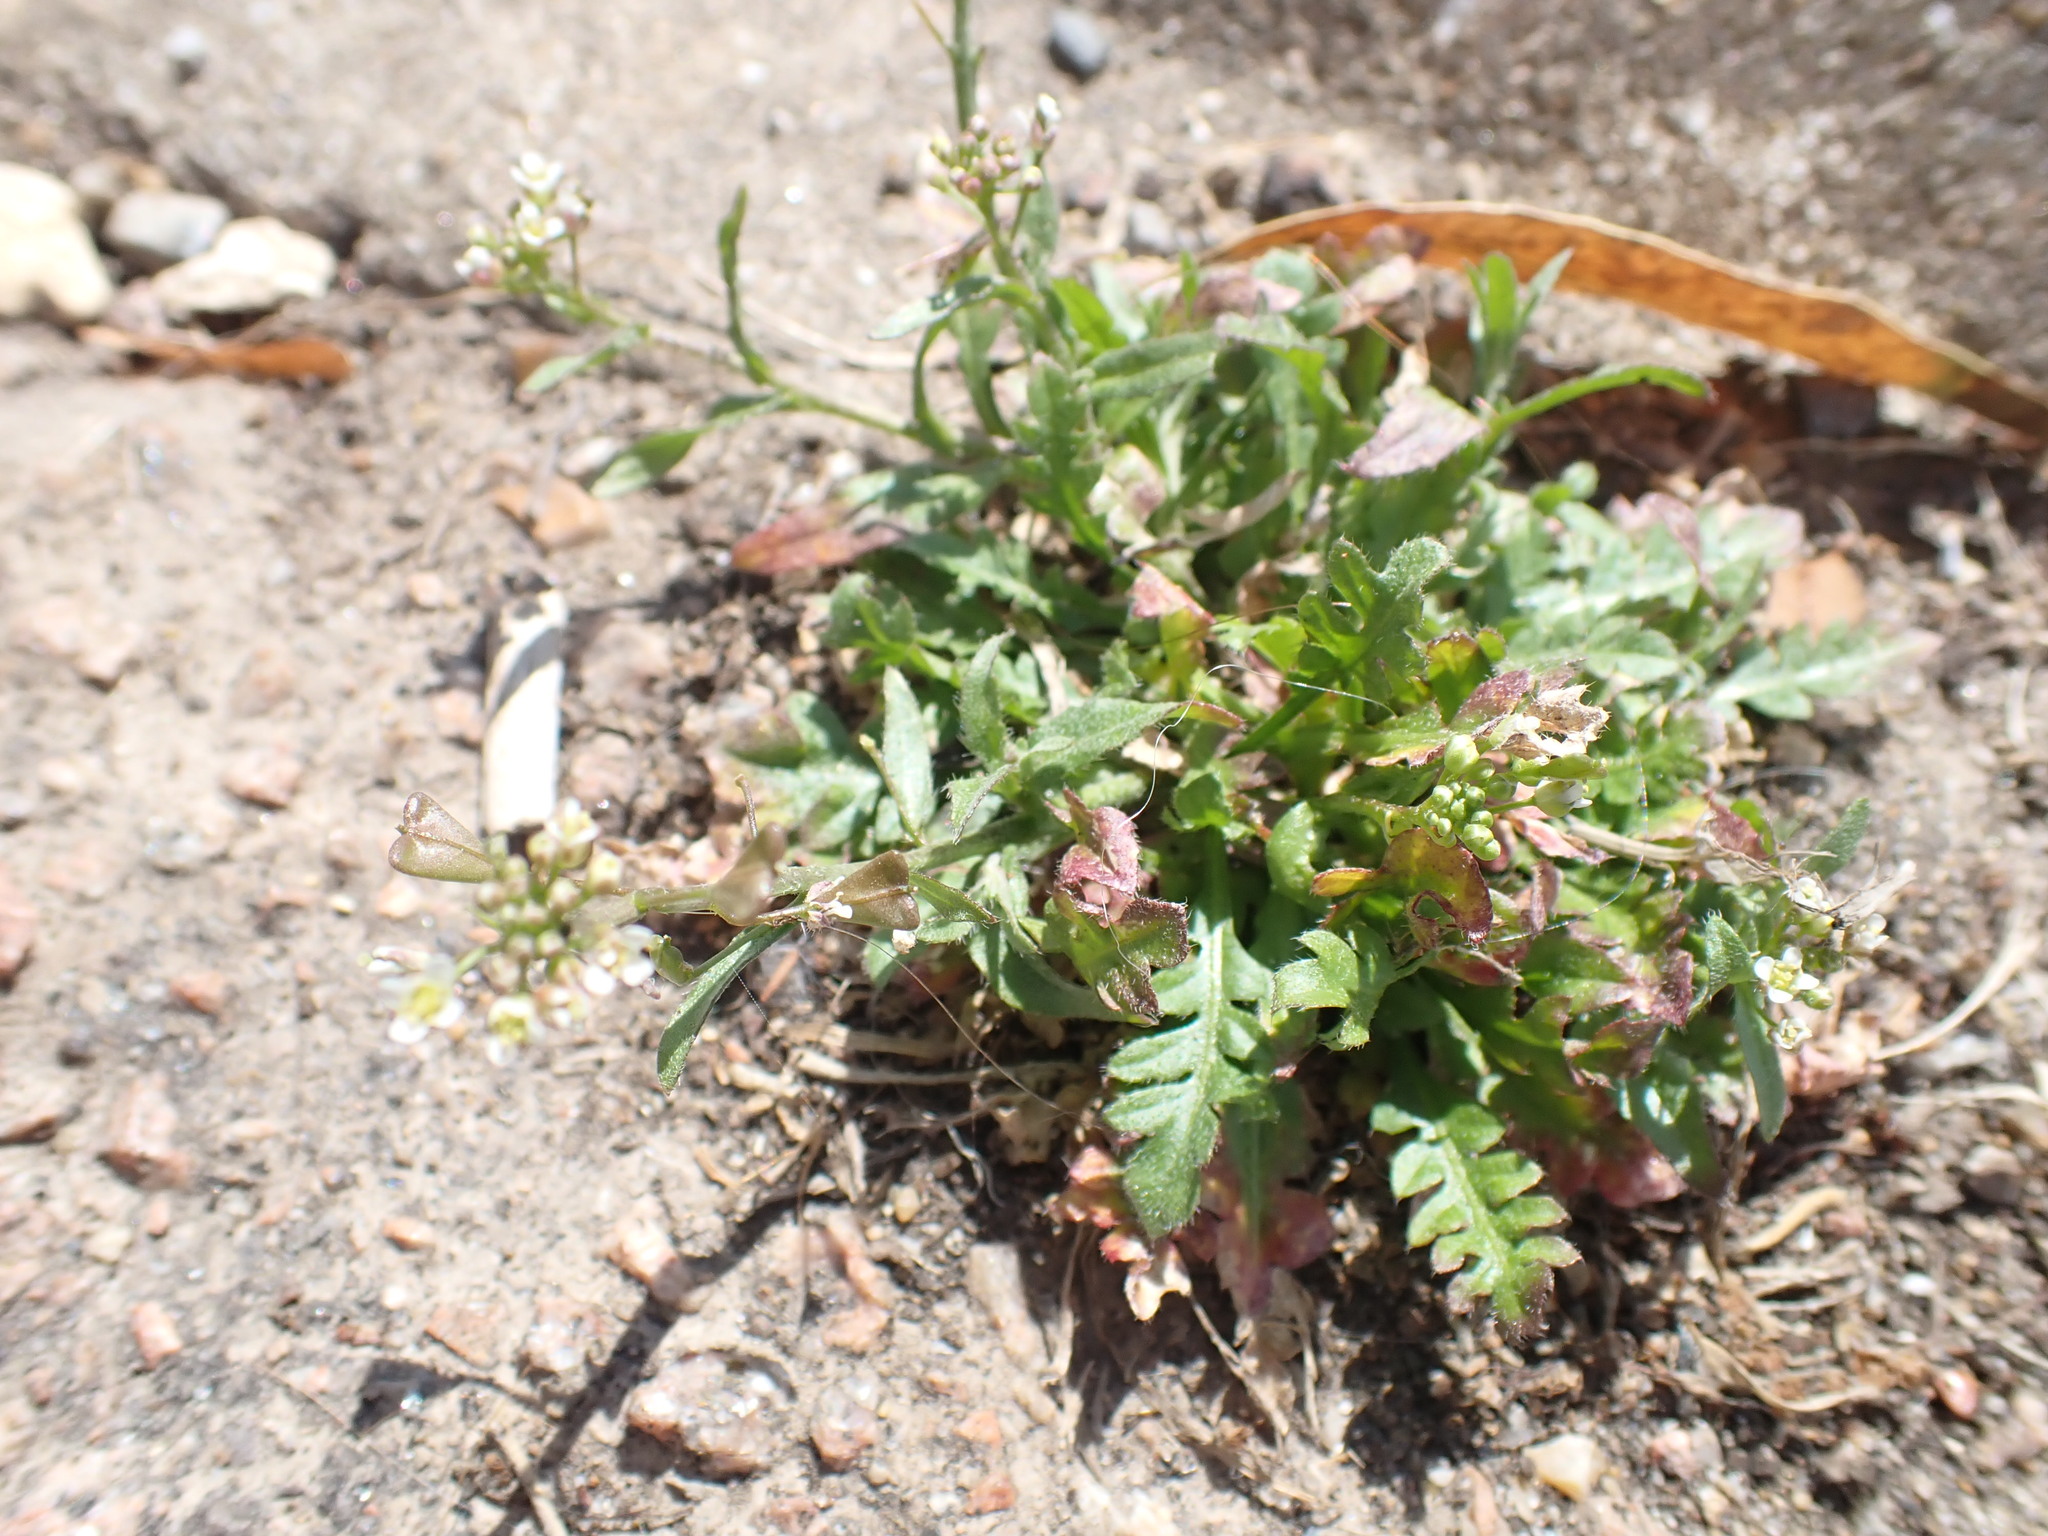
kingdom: Plantae
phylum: Tracheophyta
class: Magnoliopsida
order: Brassicales
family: Brassicaceae
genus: Capsella
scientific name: Capsella bursa-pastoris
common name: Shepherd's purse
